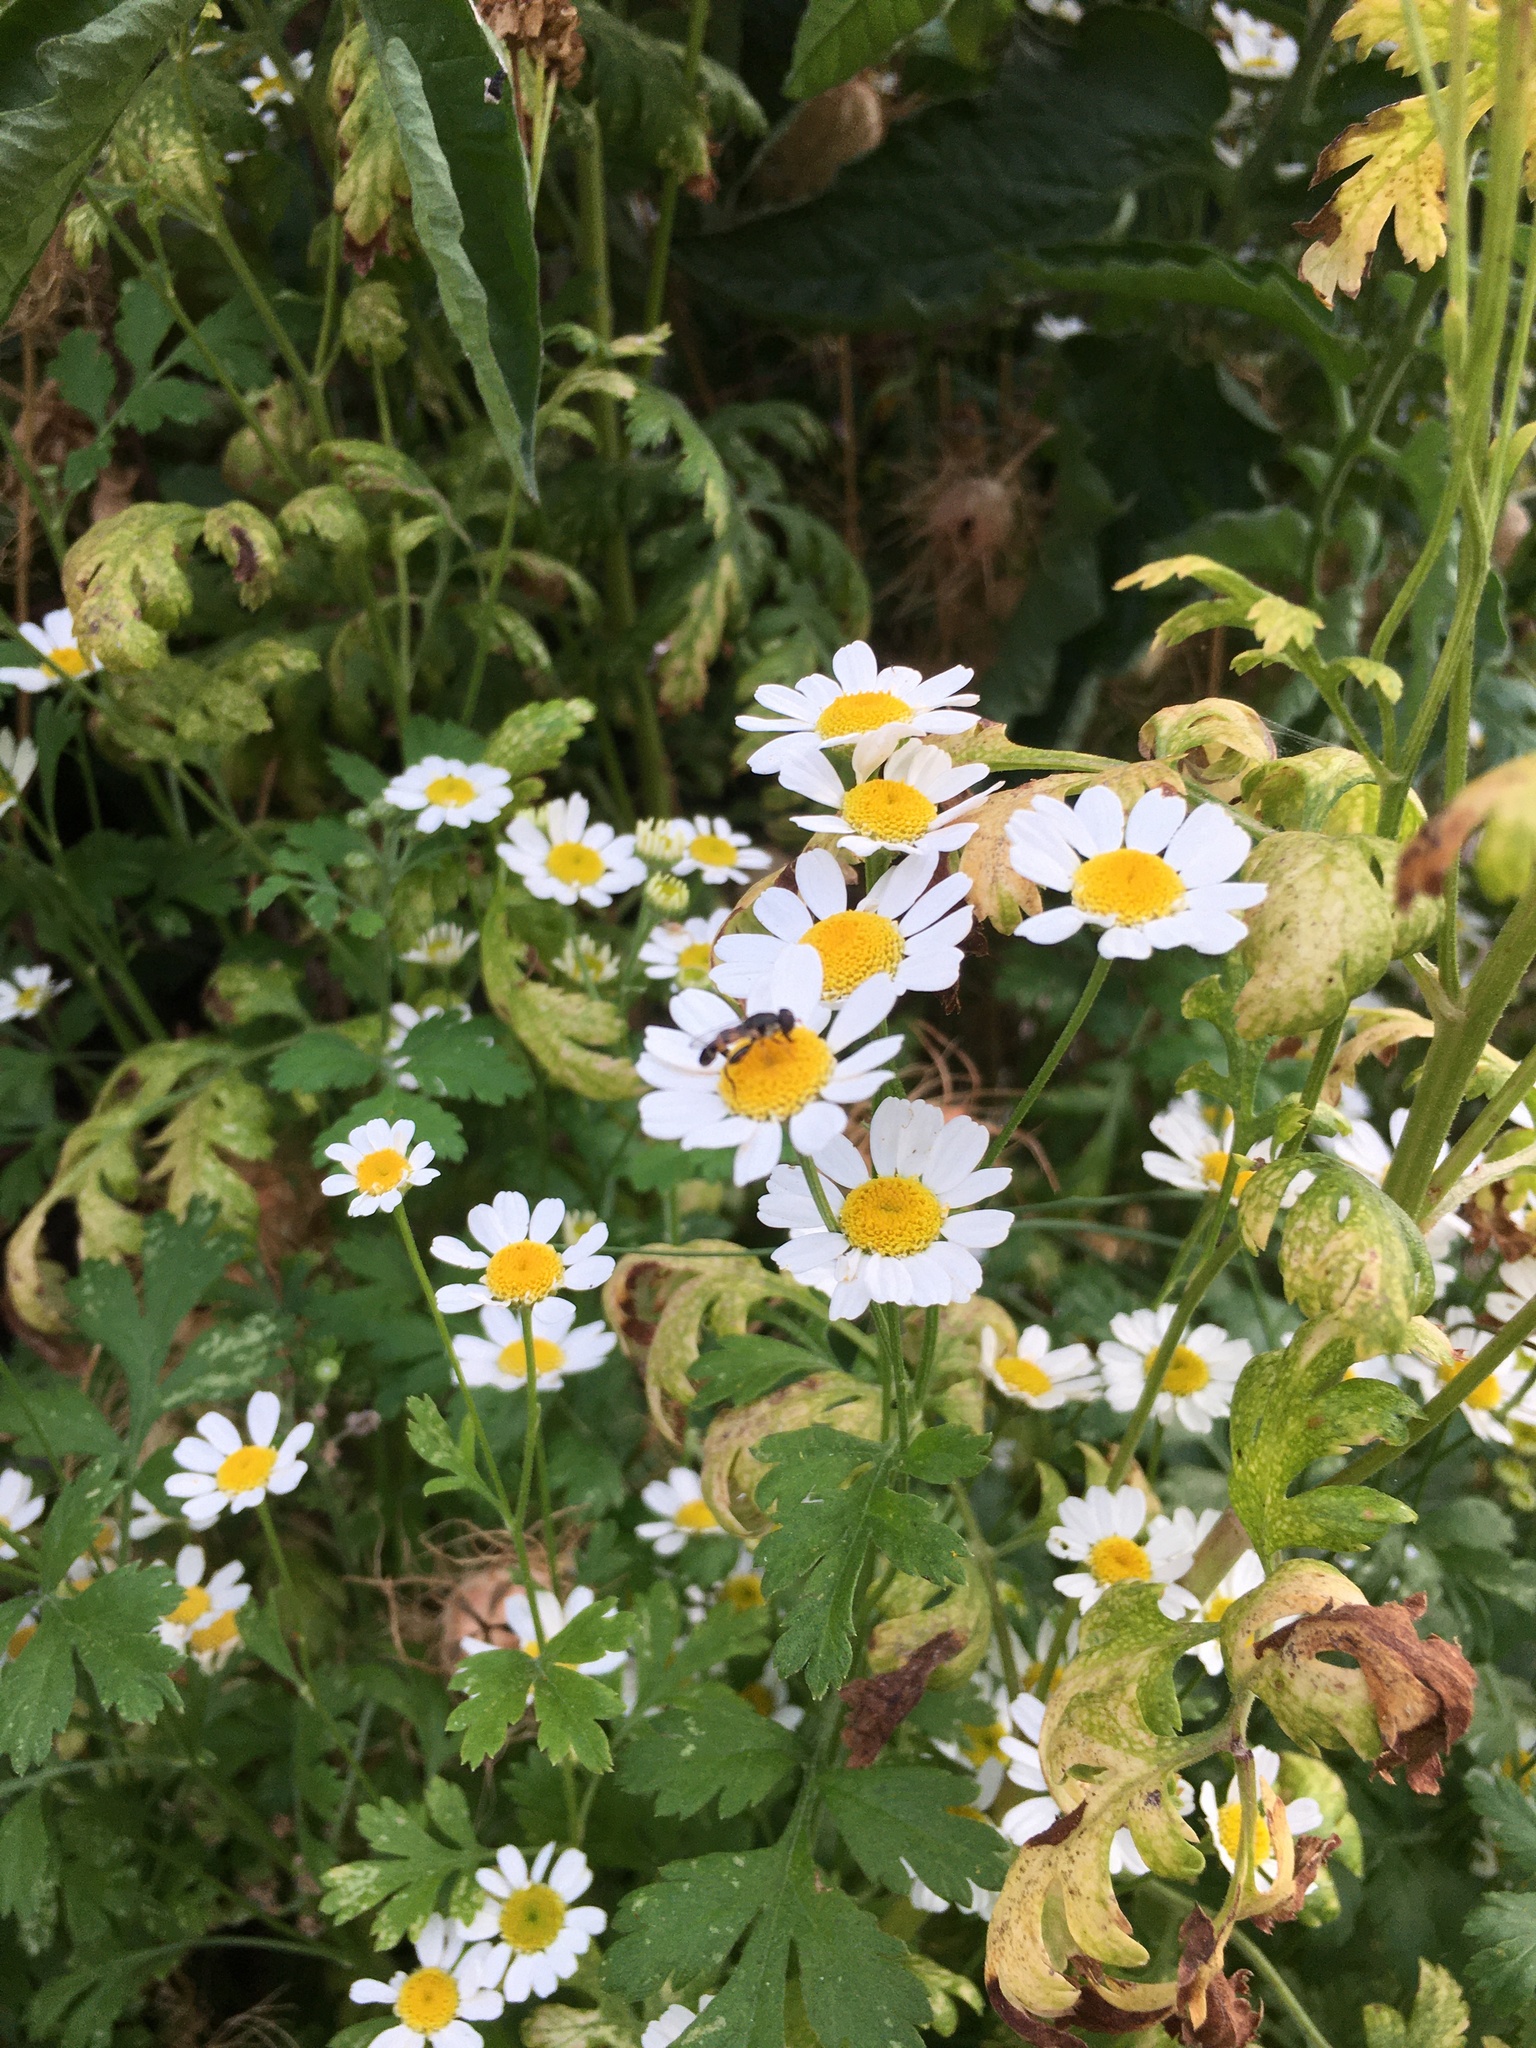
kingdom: Animalia
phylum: Arthropoda
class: Insecta
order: Diptera
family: Syrphidae
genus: Syritta
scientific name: Syritta pipiens
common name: Hover fly
